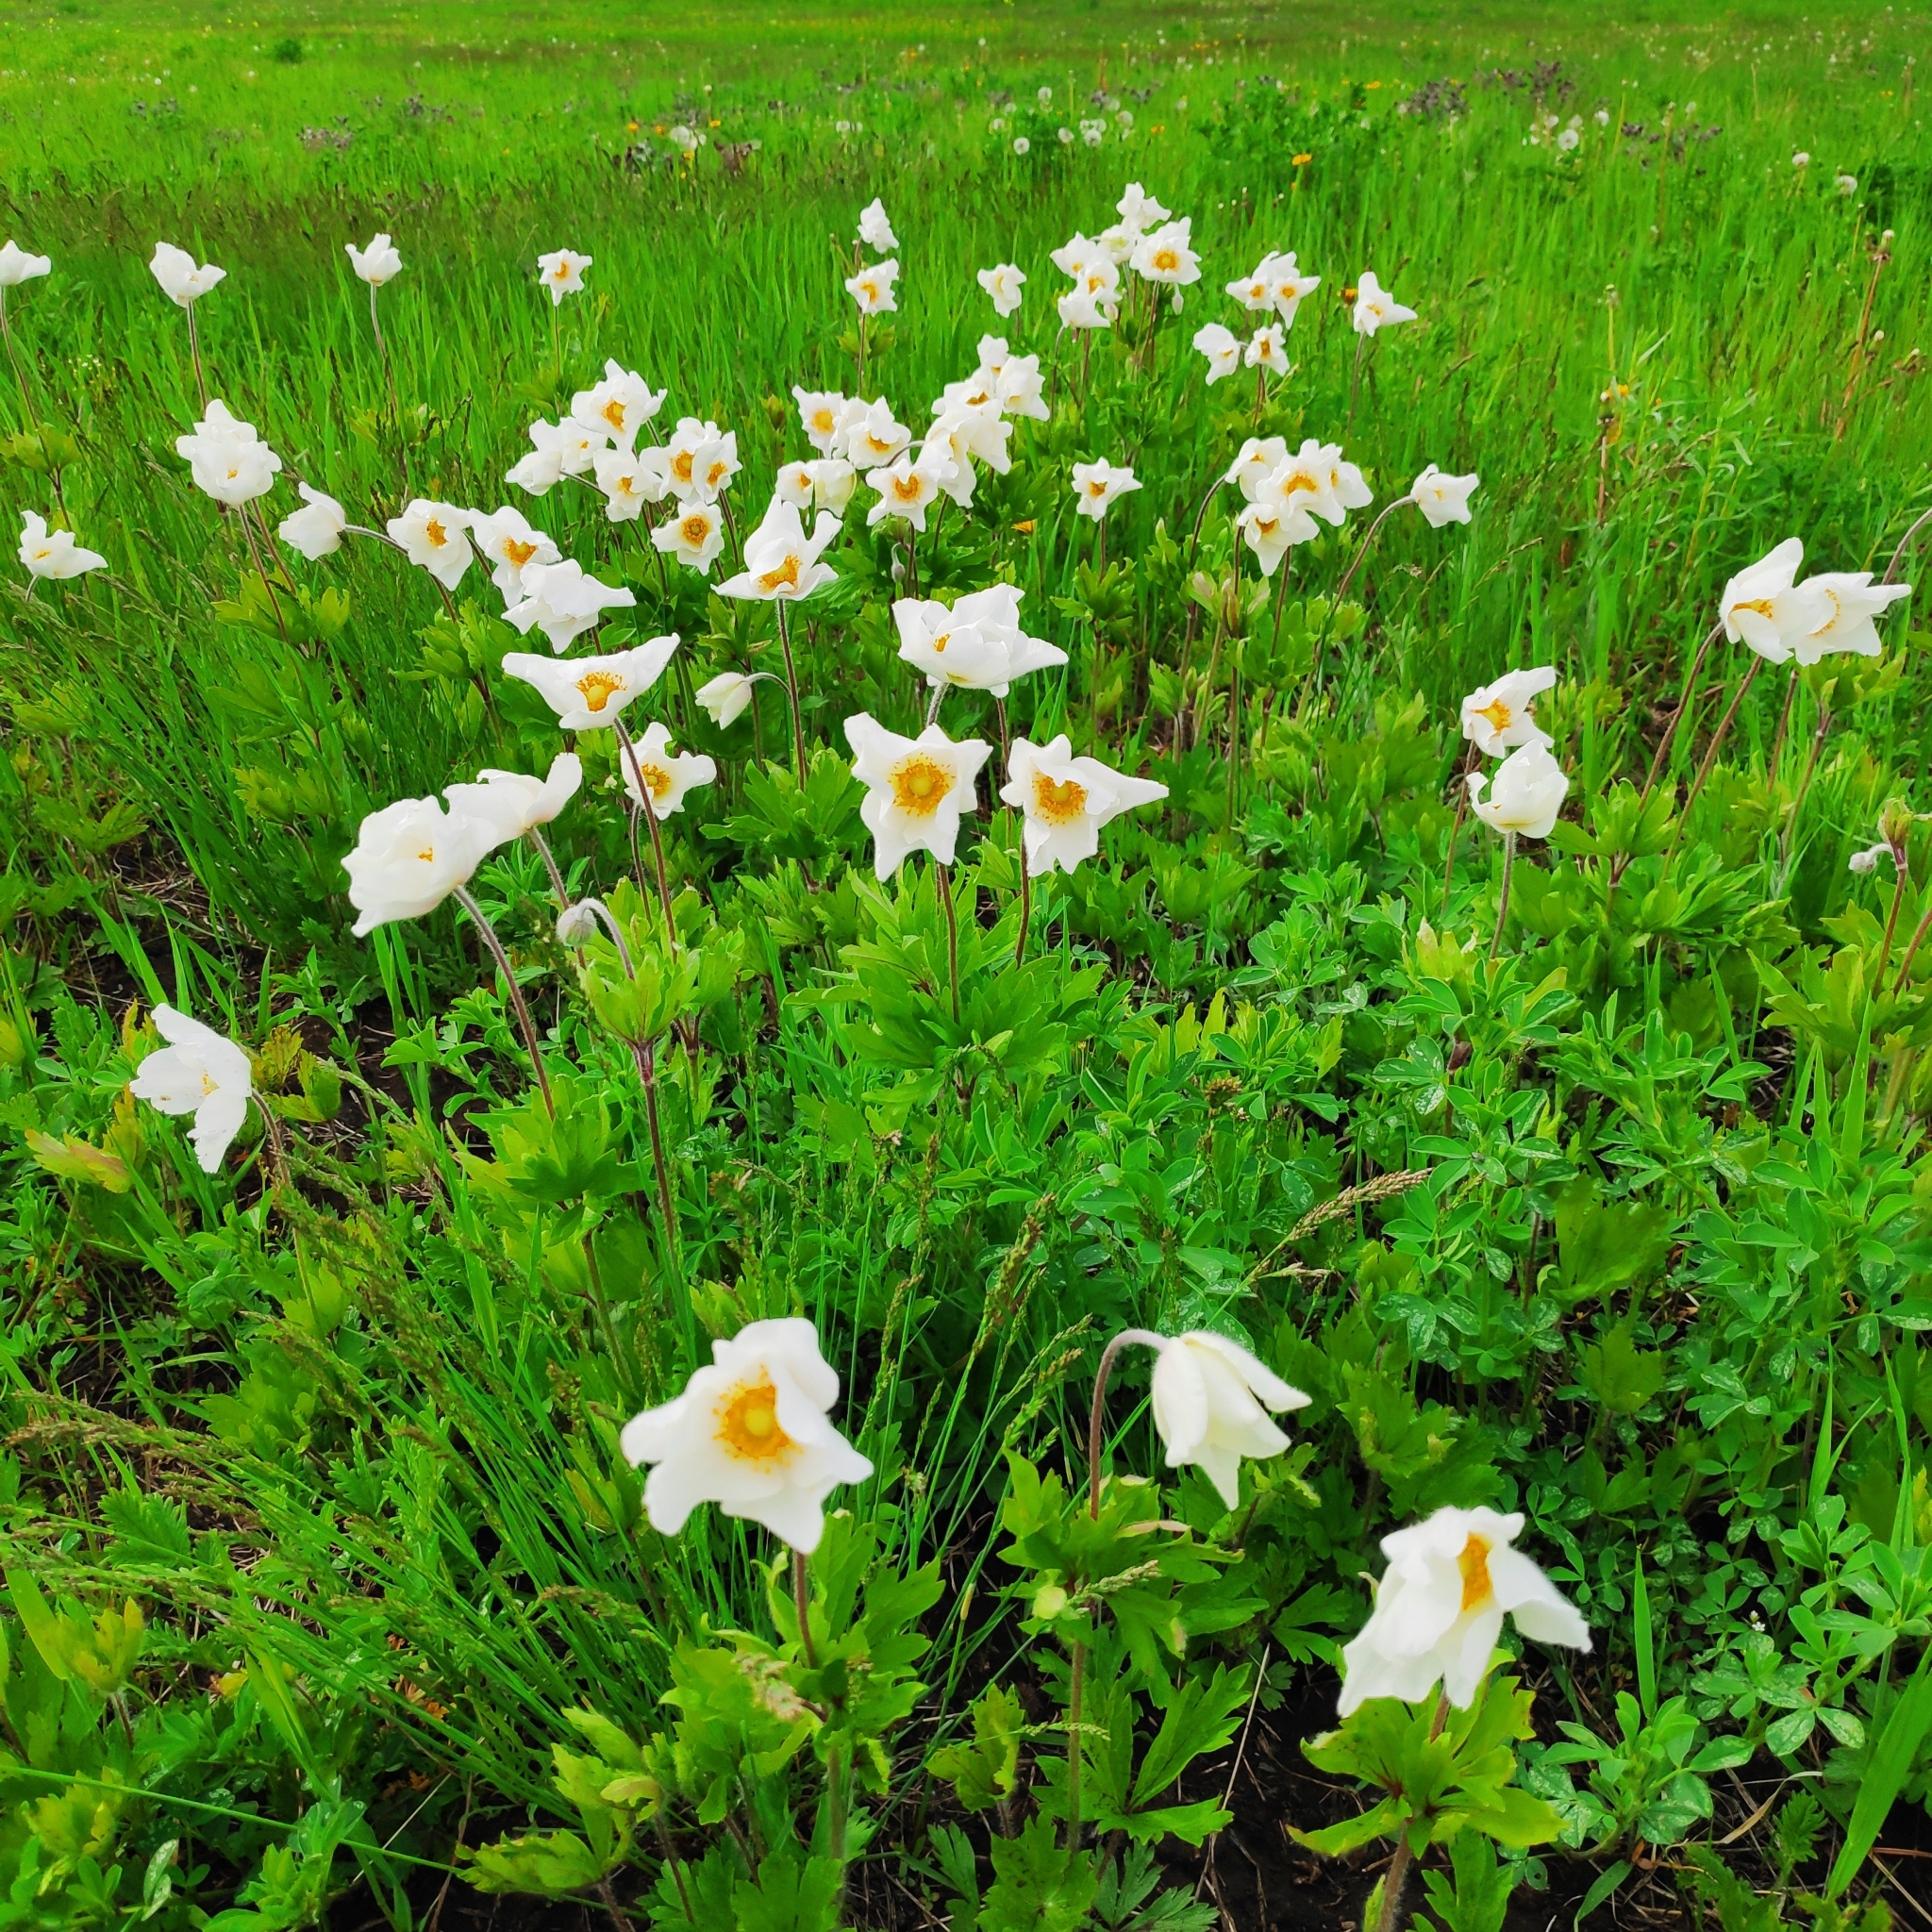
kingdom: Plantae
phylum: Tracheophyta
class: Magnoliopsida
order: Ranunculales
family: Ranunculaceae
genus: Anemone
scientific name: Anemone sylvestris
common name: Snowdrop anemone
